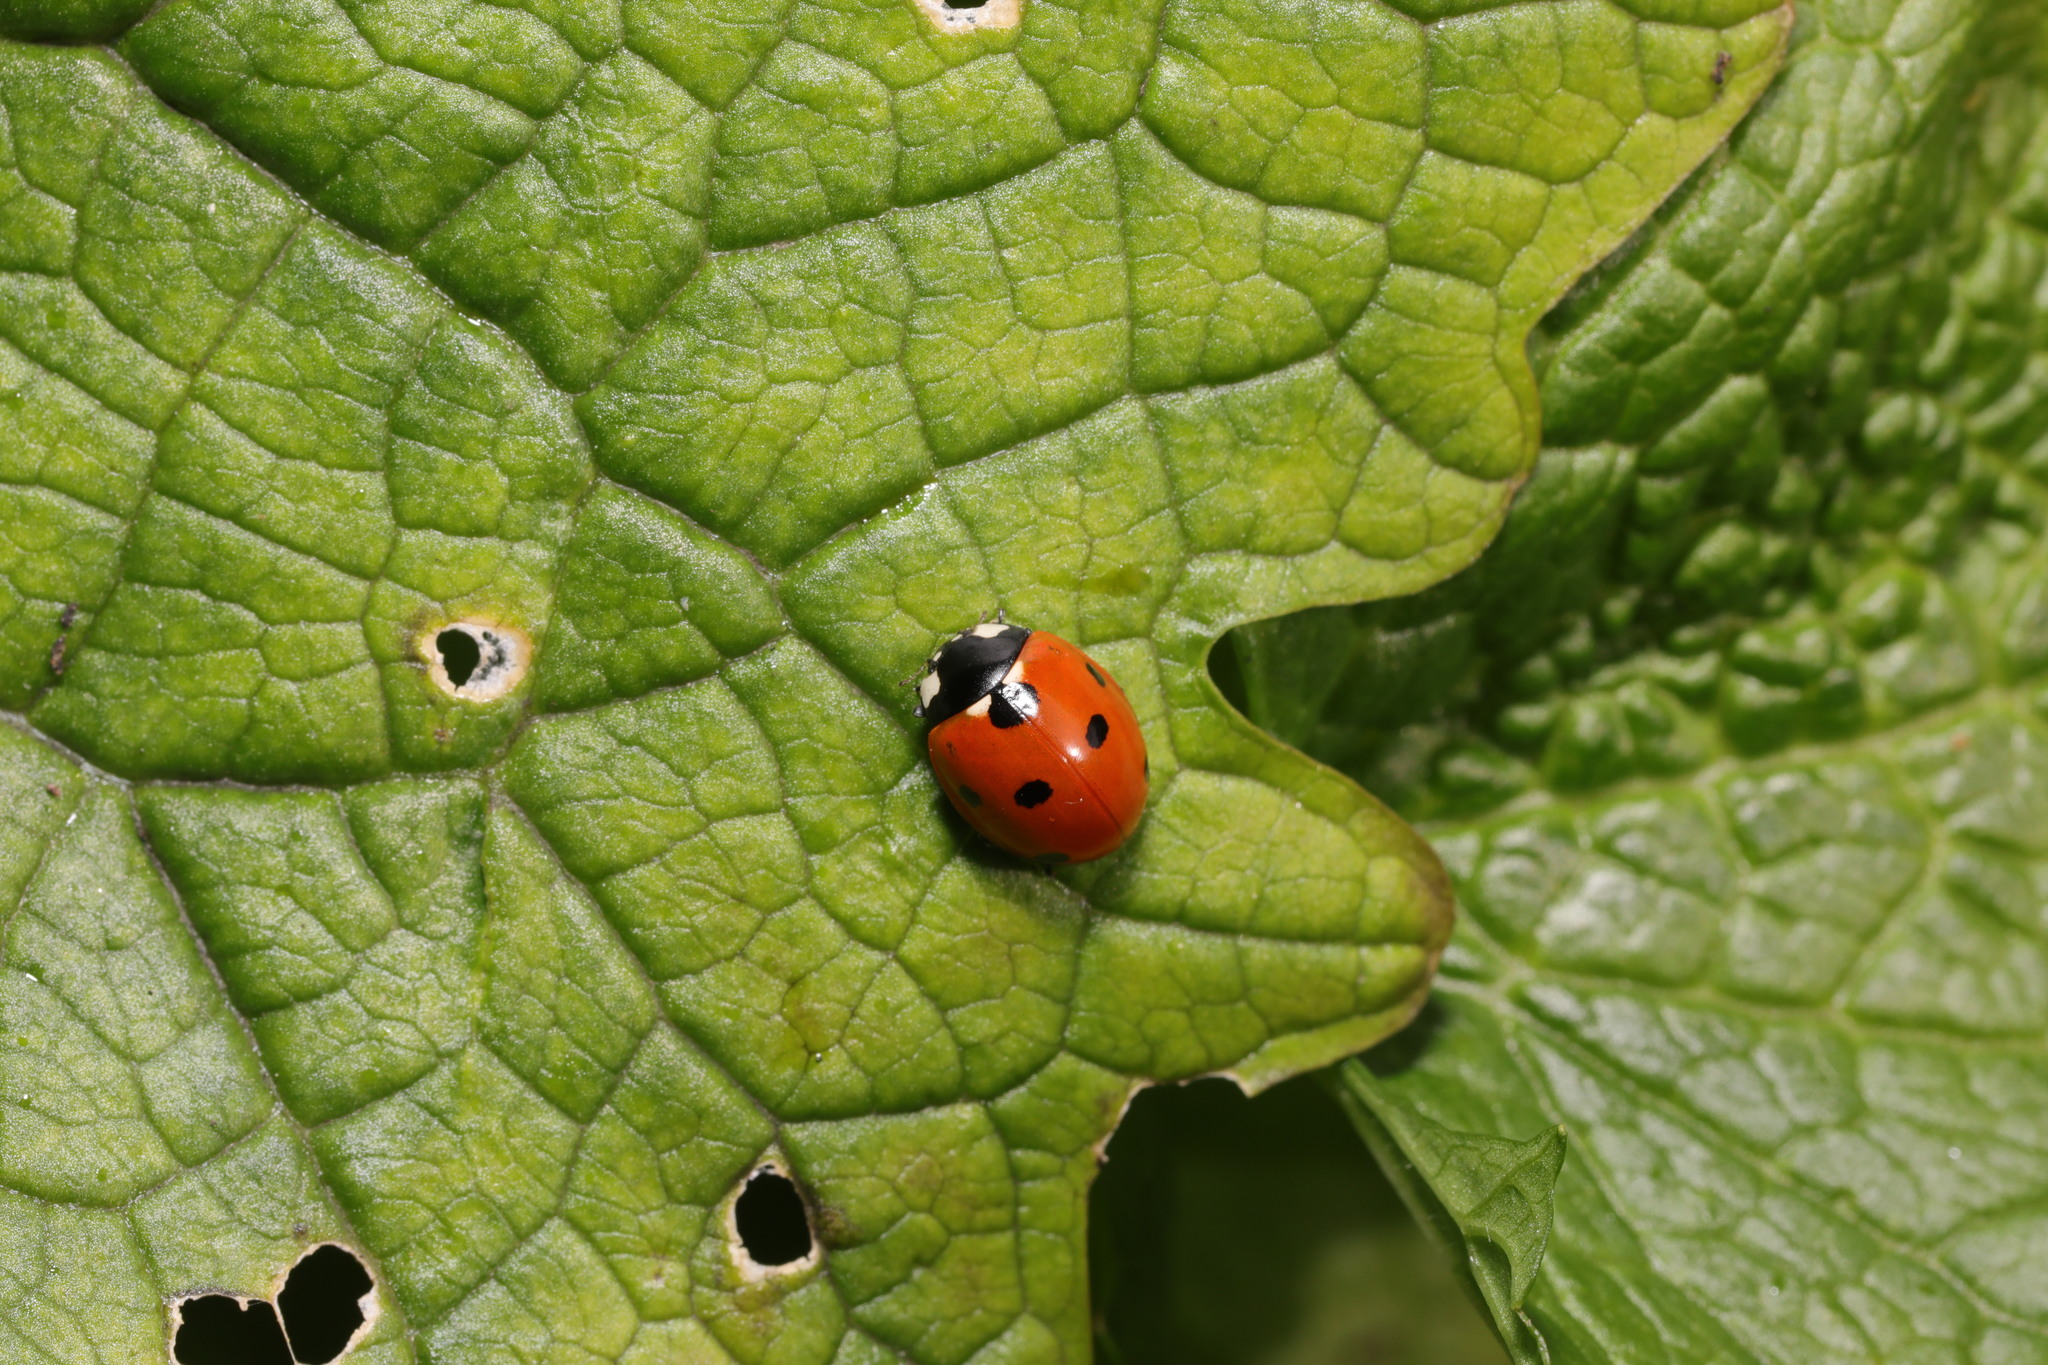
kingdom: Animalia
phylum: Arthropoda
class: Insecta
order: Coleoptera
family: Coccinellidae
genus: Coccinella
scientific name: Coccinella septempunctata
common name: Sevenspotted lady beetle
